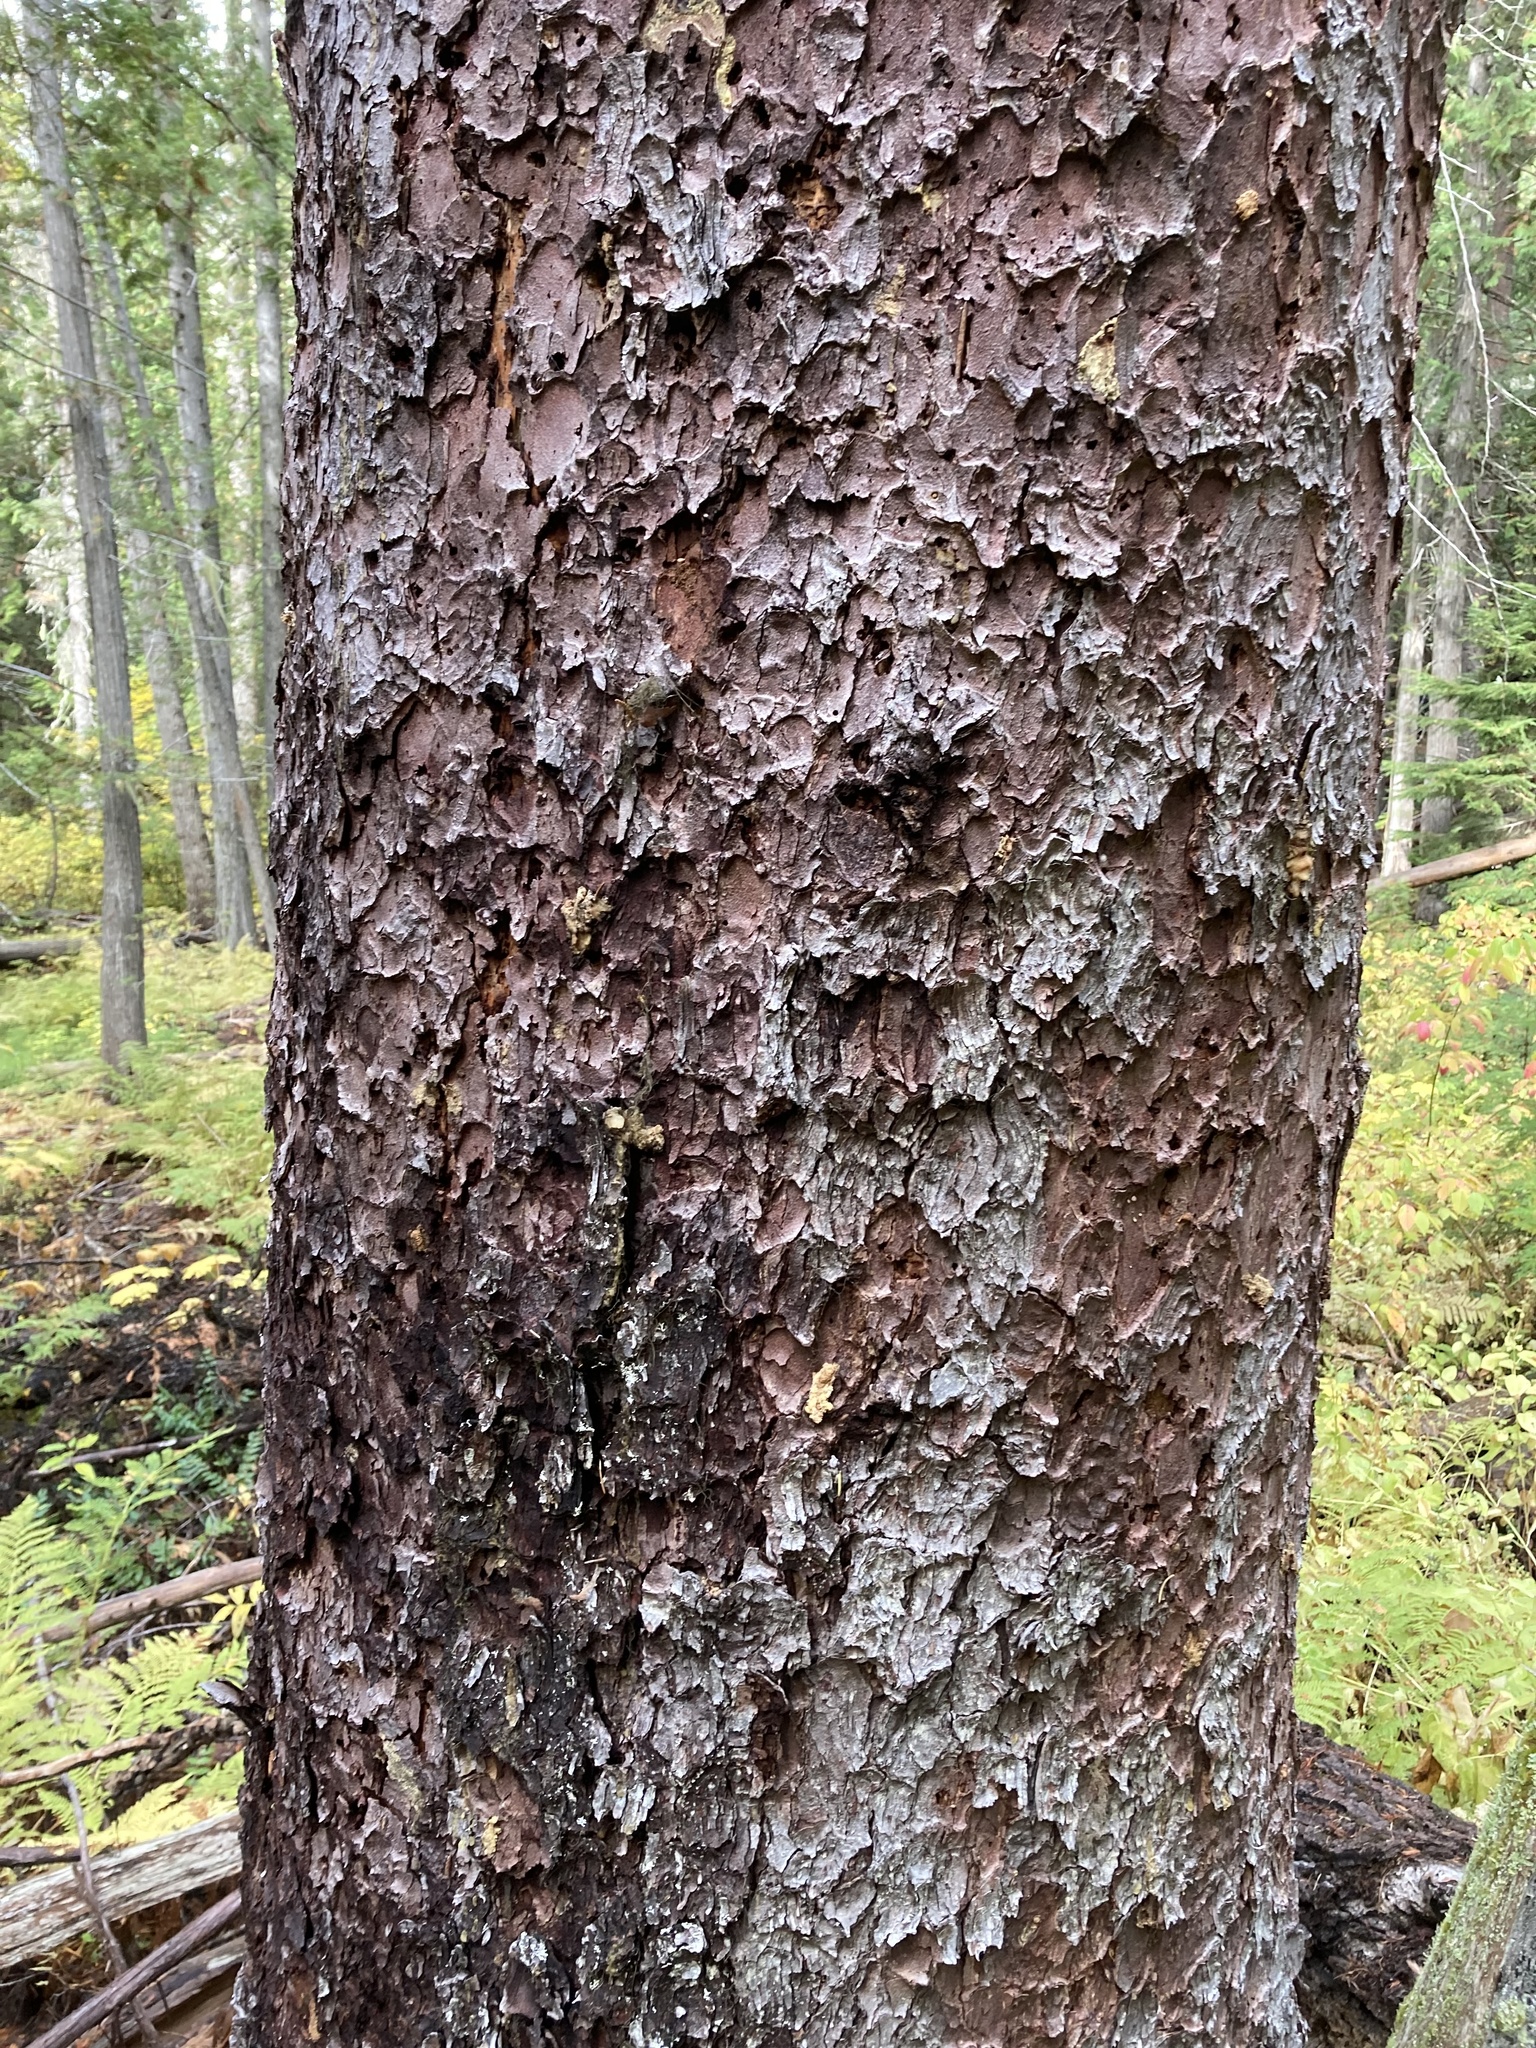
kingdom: Plantae
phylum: Tracheophyta
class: Pinopsida
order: Pinales
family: Pinaceae
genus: Picea
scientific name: Picea engelmannii
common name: Engelmann spruce
